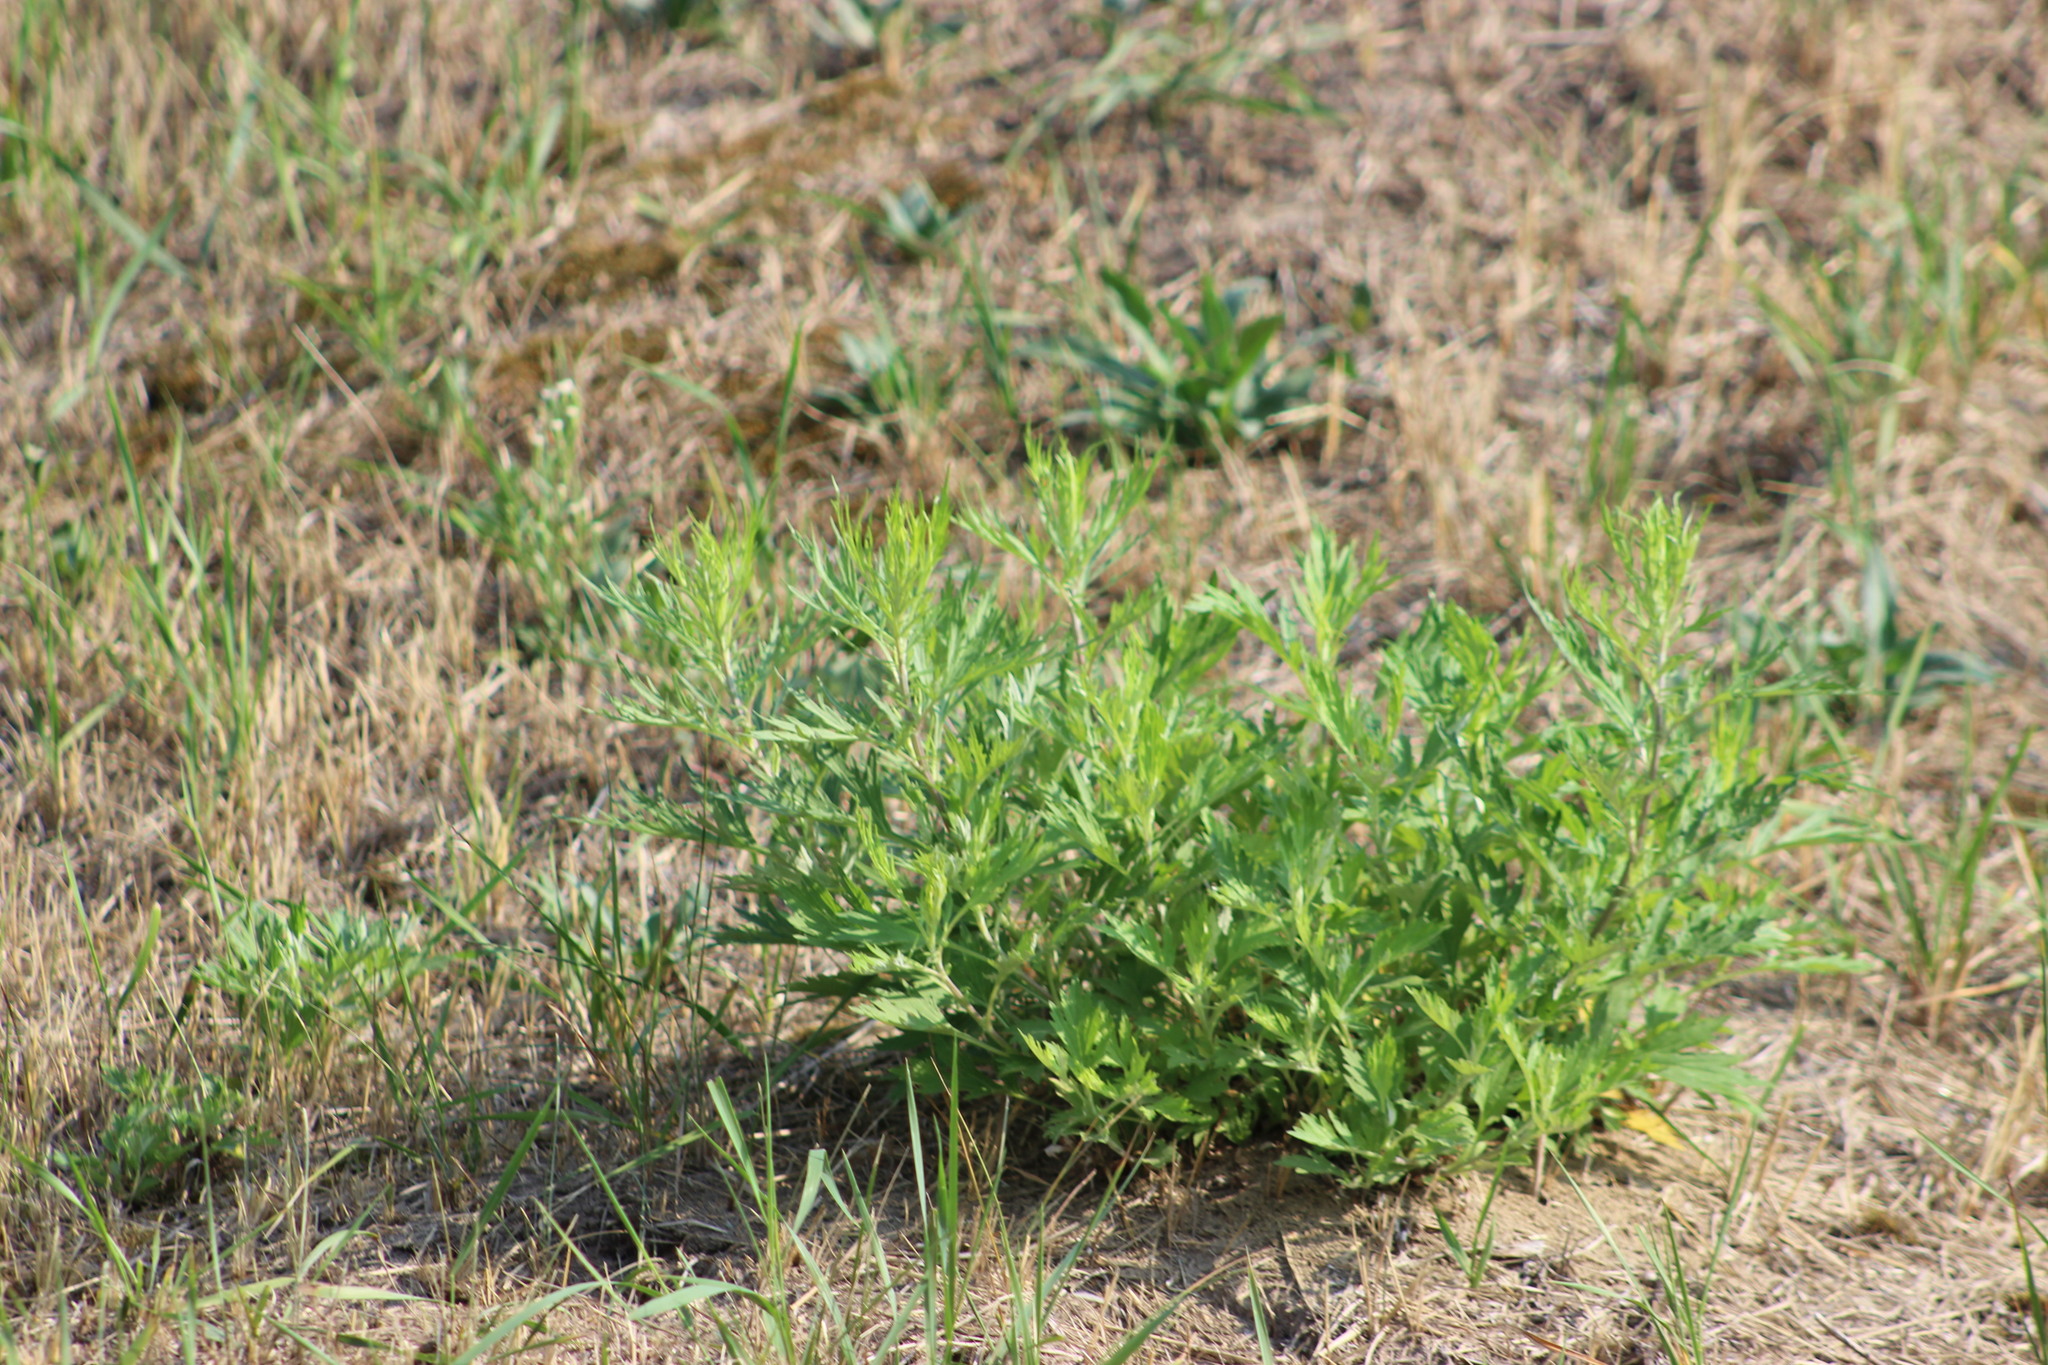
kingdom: Plantae
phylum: Tracheophyta
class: Magnoliopsida
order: Asterales
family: Asteraceae
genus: Artemisia
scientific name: Artemisia vulgaris
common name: Mugwort
